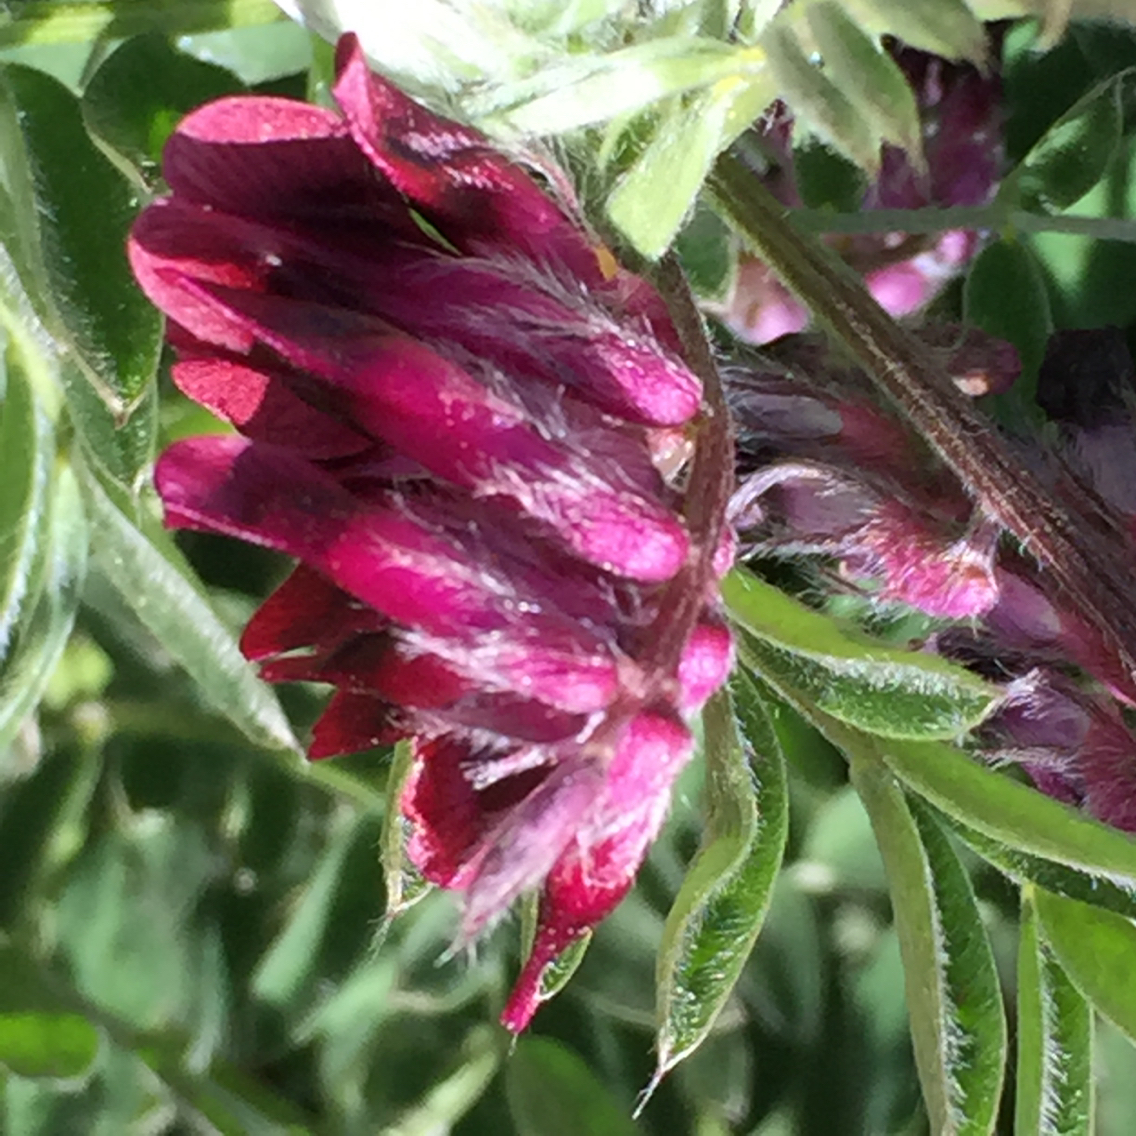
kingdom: Plantae
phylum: Tracheophyta
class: Magnoliopsida
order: Fabales
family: Fabaceae
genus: Vicia
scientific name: Vicia benghalensis
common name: Purple vetch
